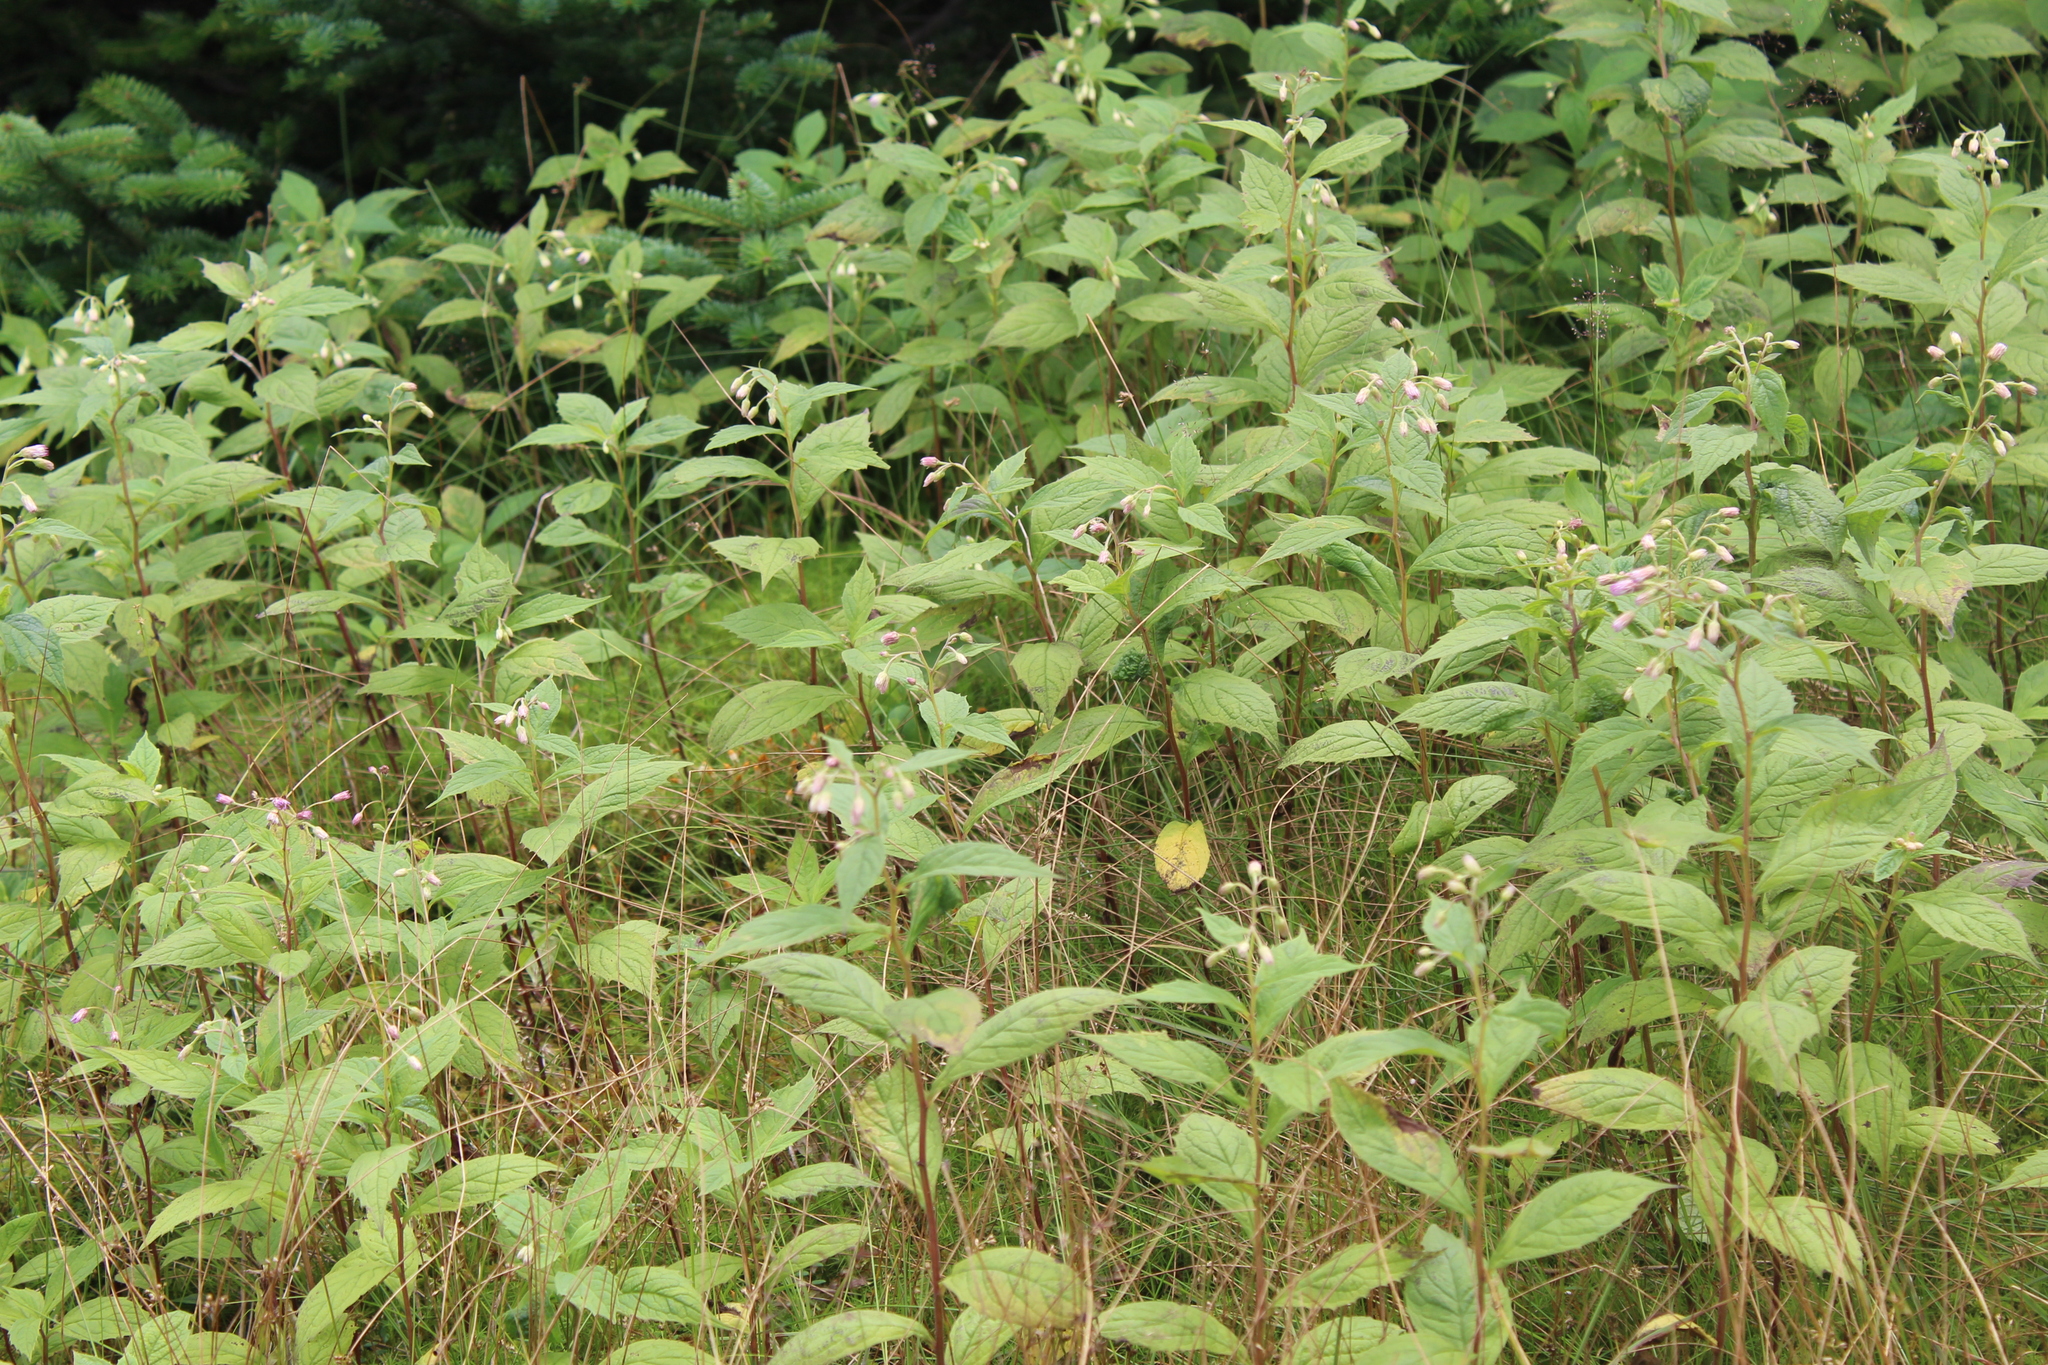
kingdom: Plantae
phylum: Tracheophyta
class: Magnoliopsida
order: Asterales
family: Asteraceae
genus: Oclemena
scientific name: Oclemena acuminata
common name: Mountain aster
